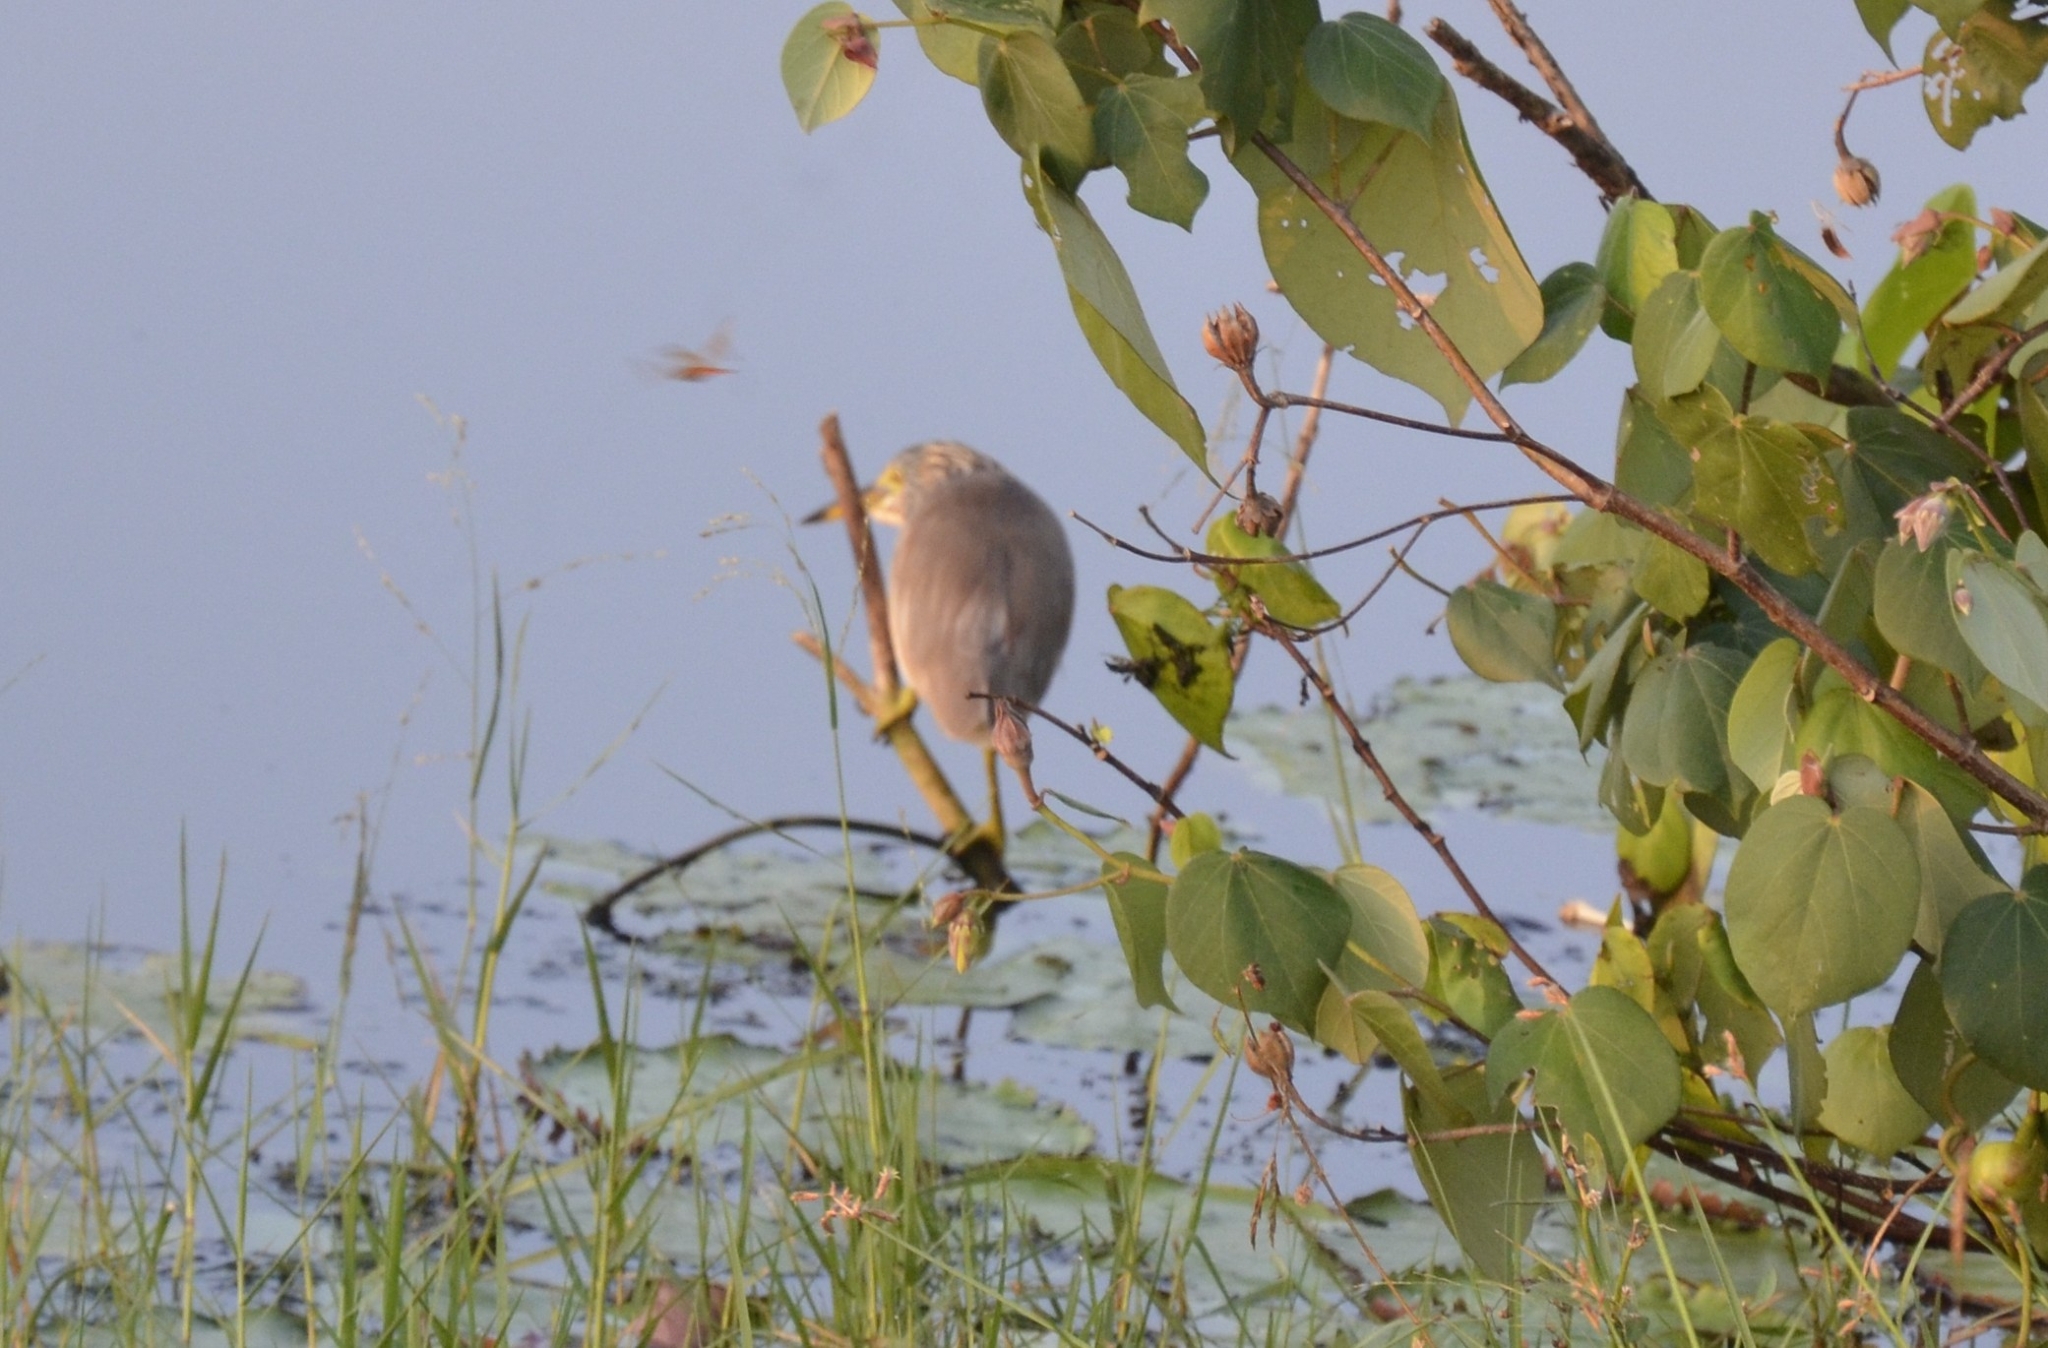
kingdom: Animalia
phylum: Chordata
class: Aves
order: Pelecaniformes
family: Ardeidae
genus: Ardeola
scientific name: Ardeola grayii
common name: Indian pond heron
